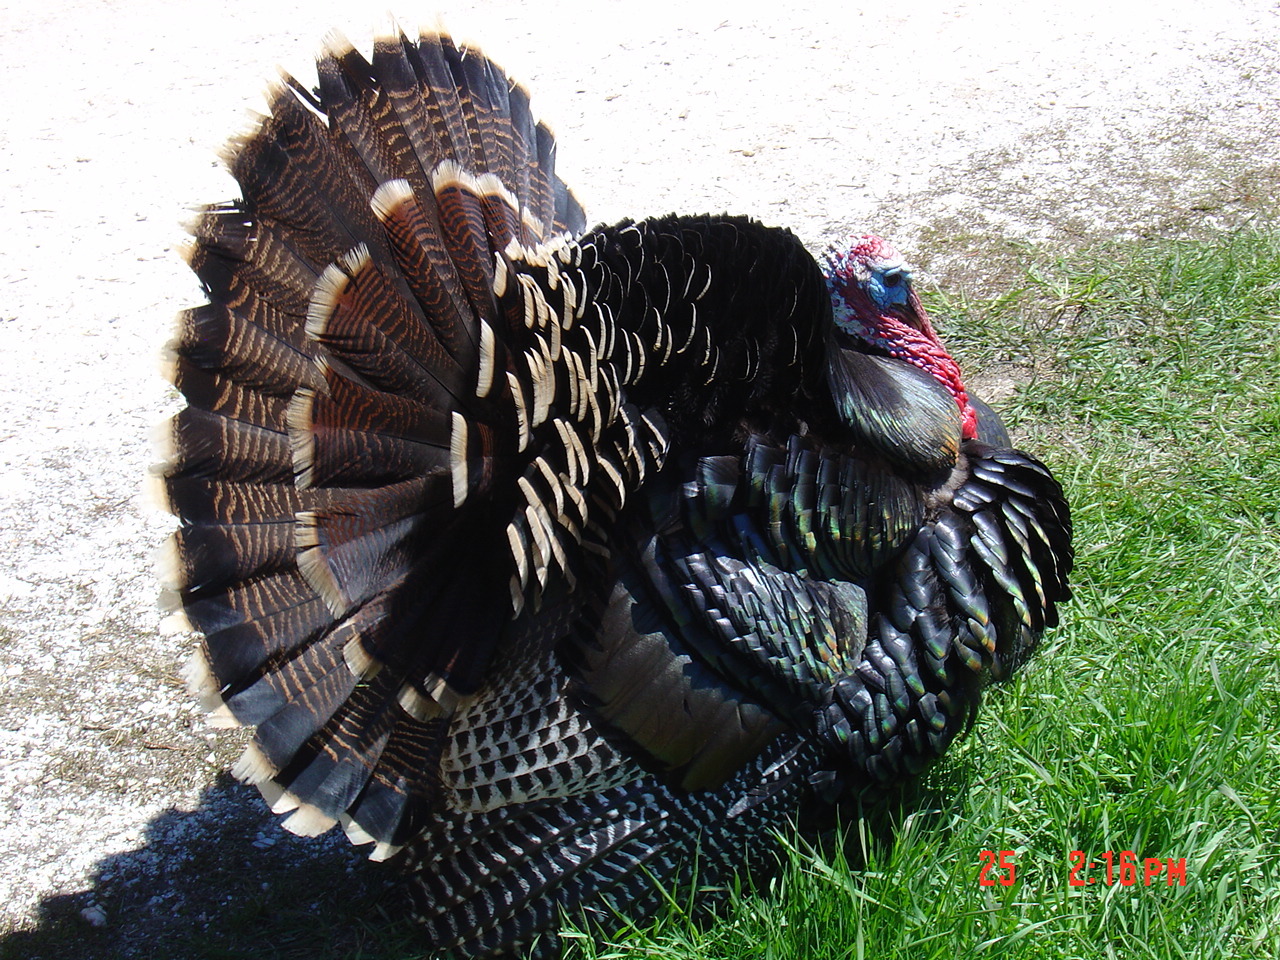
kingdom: Animalia
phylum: Chordata
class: Aves
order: Galliformes
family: Phasianidae
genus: Meleagris
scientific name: Meleagris gallopavo
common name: Wild turkey
